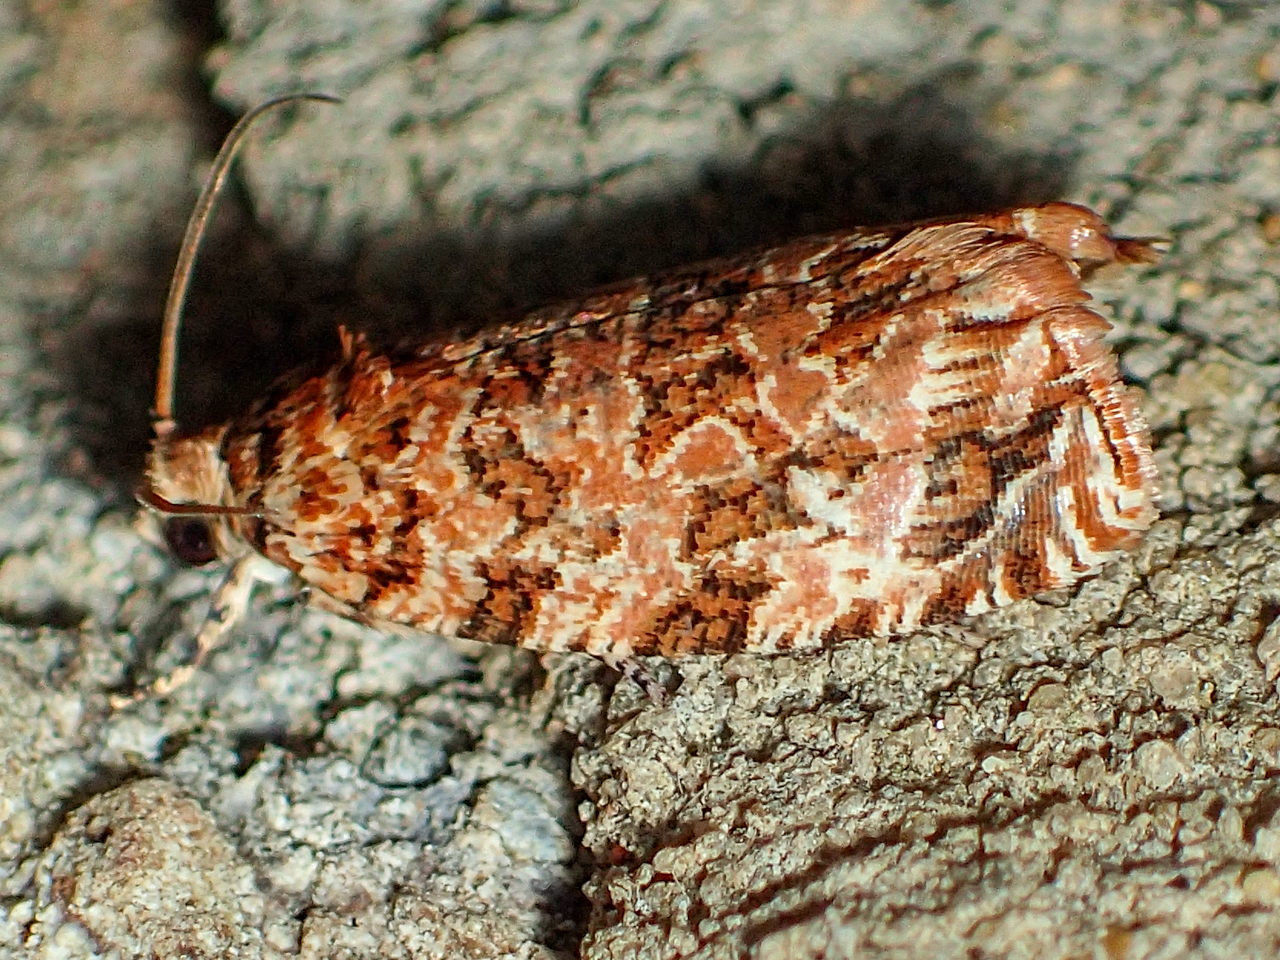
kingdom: Animalia
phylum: Arthropoda
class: Insecta
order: Lepidoptera
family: Tortricidae
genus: Phaecasiophora
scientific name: Phaecasiophora niveiguttana
